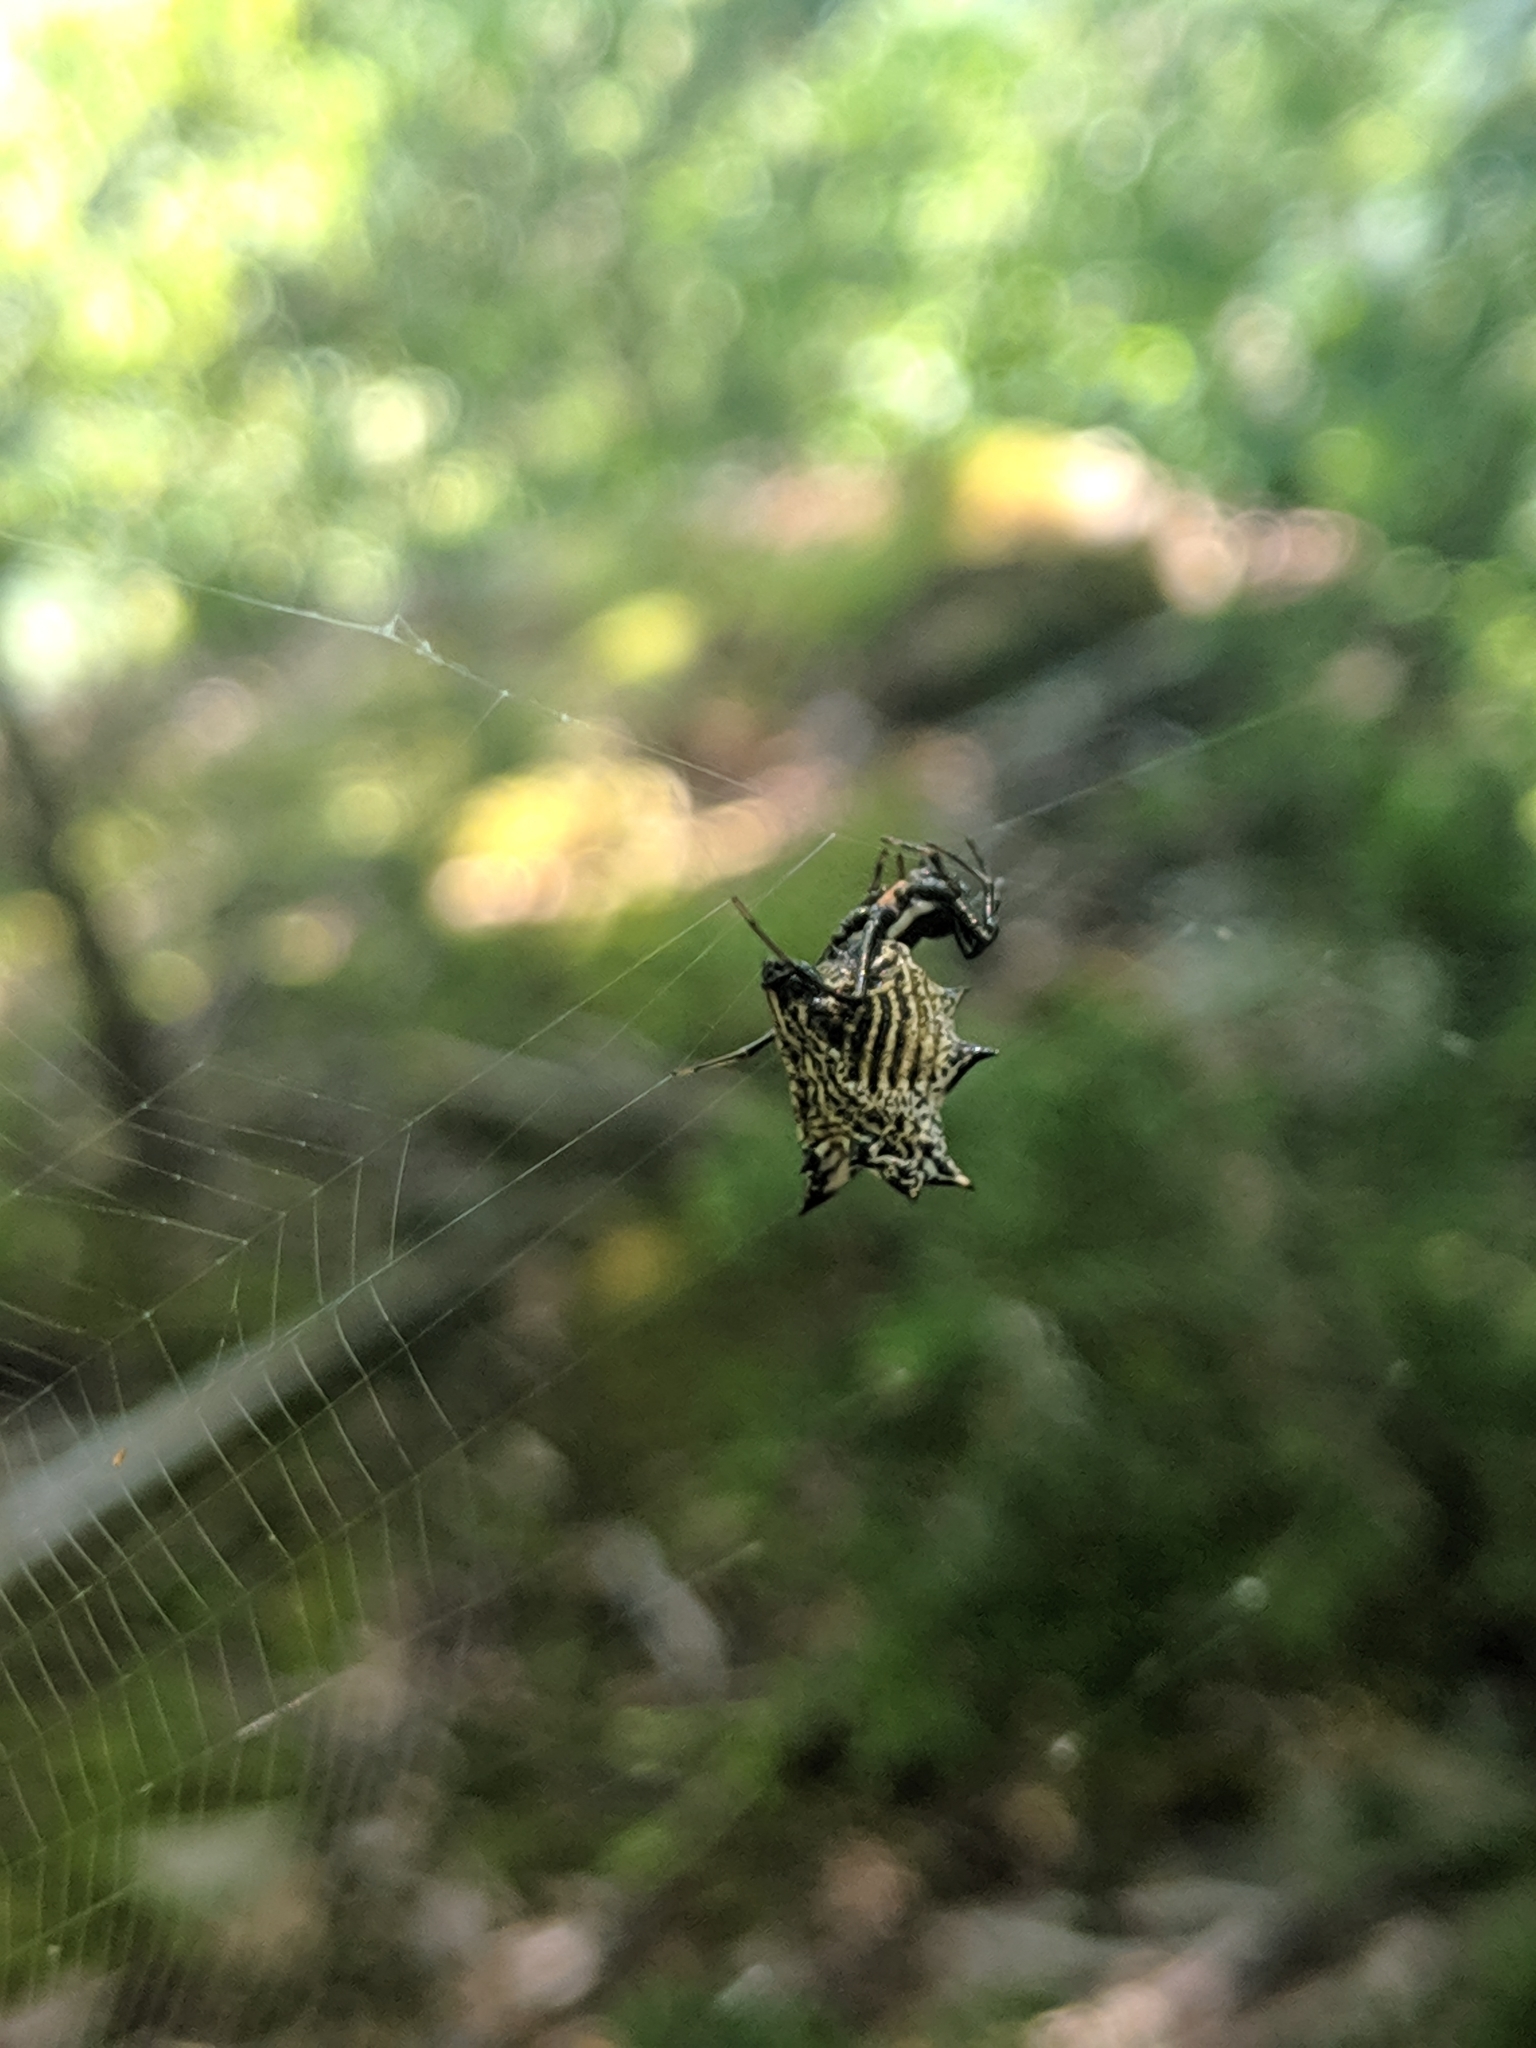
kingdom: Animalia
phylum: Arthropoda
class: Arachnida
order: Araneae
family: Araneidae
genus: Micrathena
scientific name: Micrathena gracilis
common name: Orb weavers
